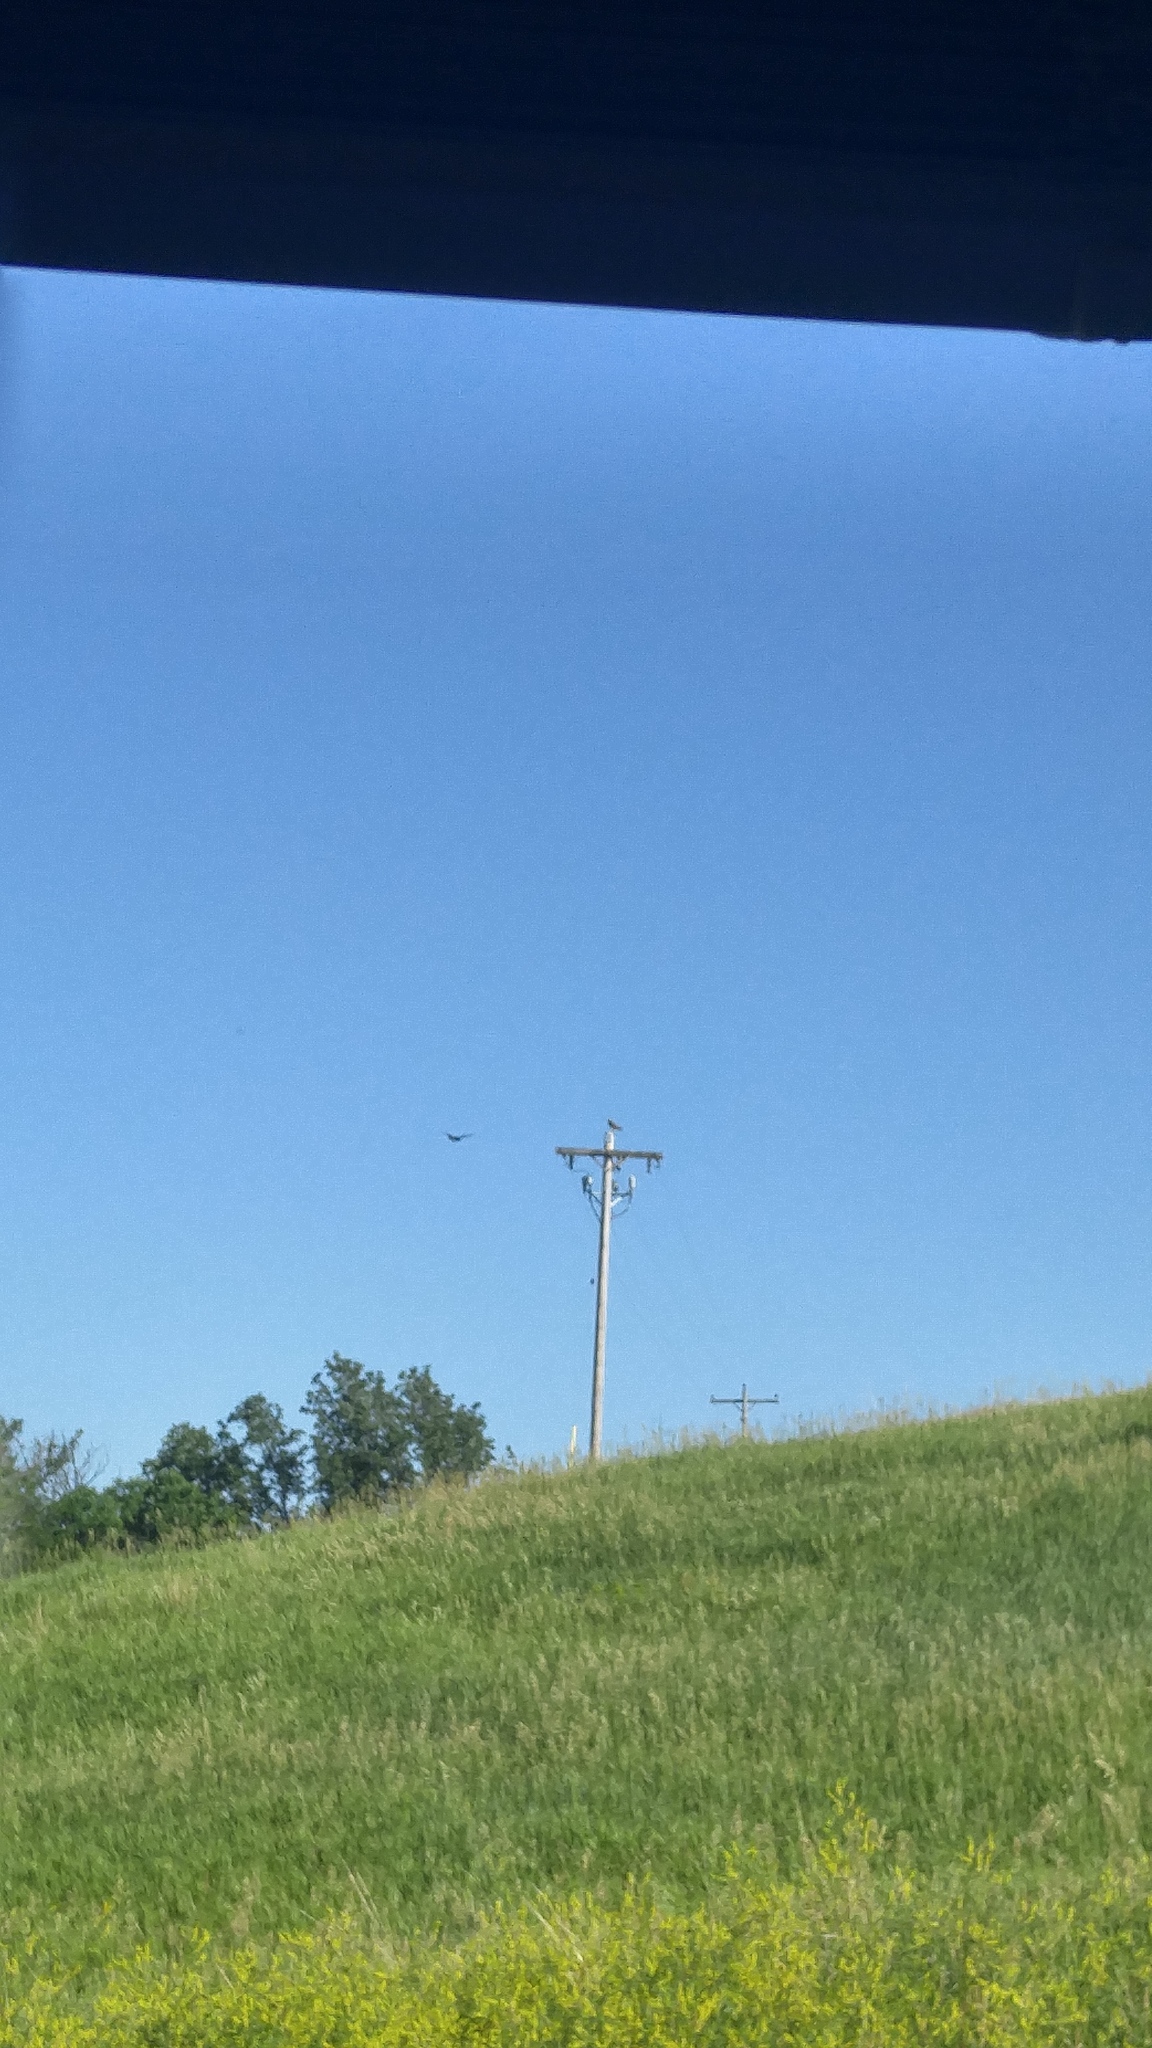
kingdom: Animalia
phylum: Chordata
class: Aves
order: Passeriformes
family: Corvidae
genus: Corvus
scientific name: Corvus brachyrhynchos
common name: American crow
